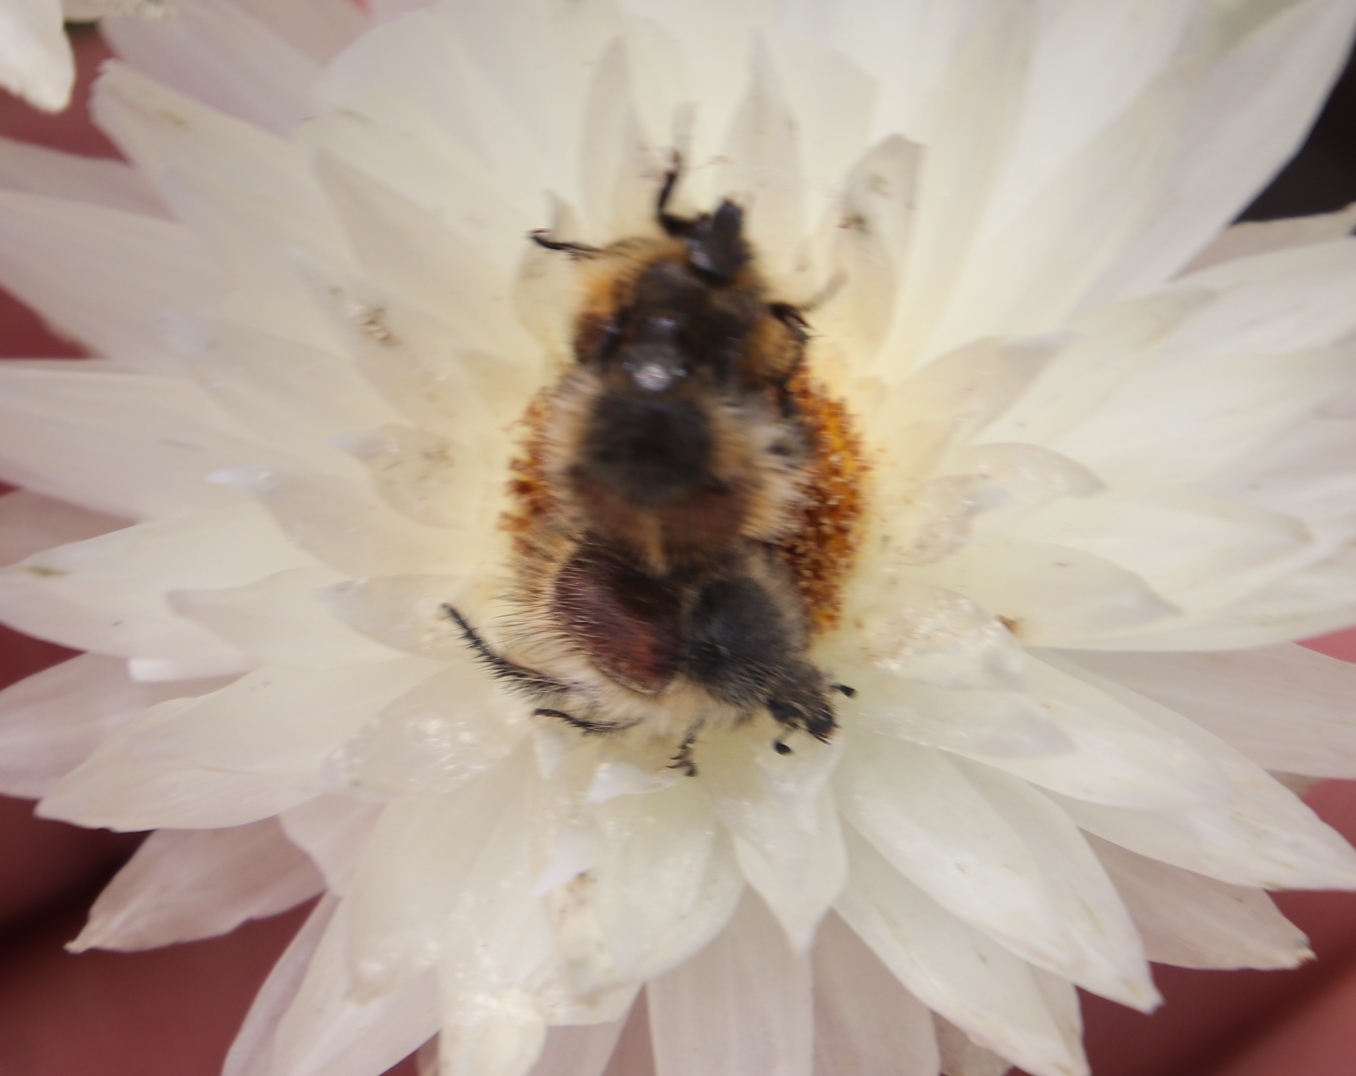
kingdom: Plantae
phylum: Tracheophyta
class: Magnoliopsida
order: Asterales
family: Asteraceae
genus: Edmondia
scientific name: Edmondia sesamoides
